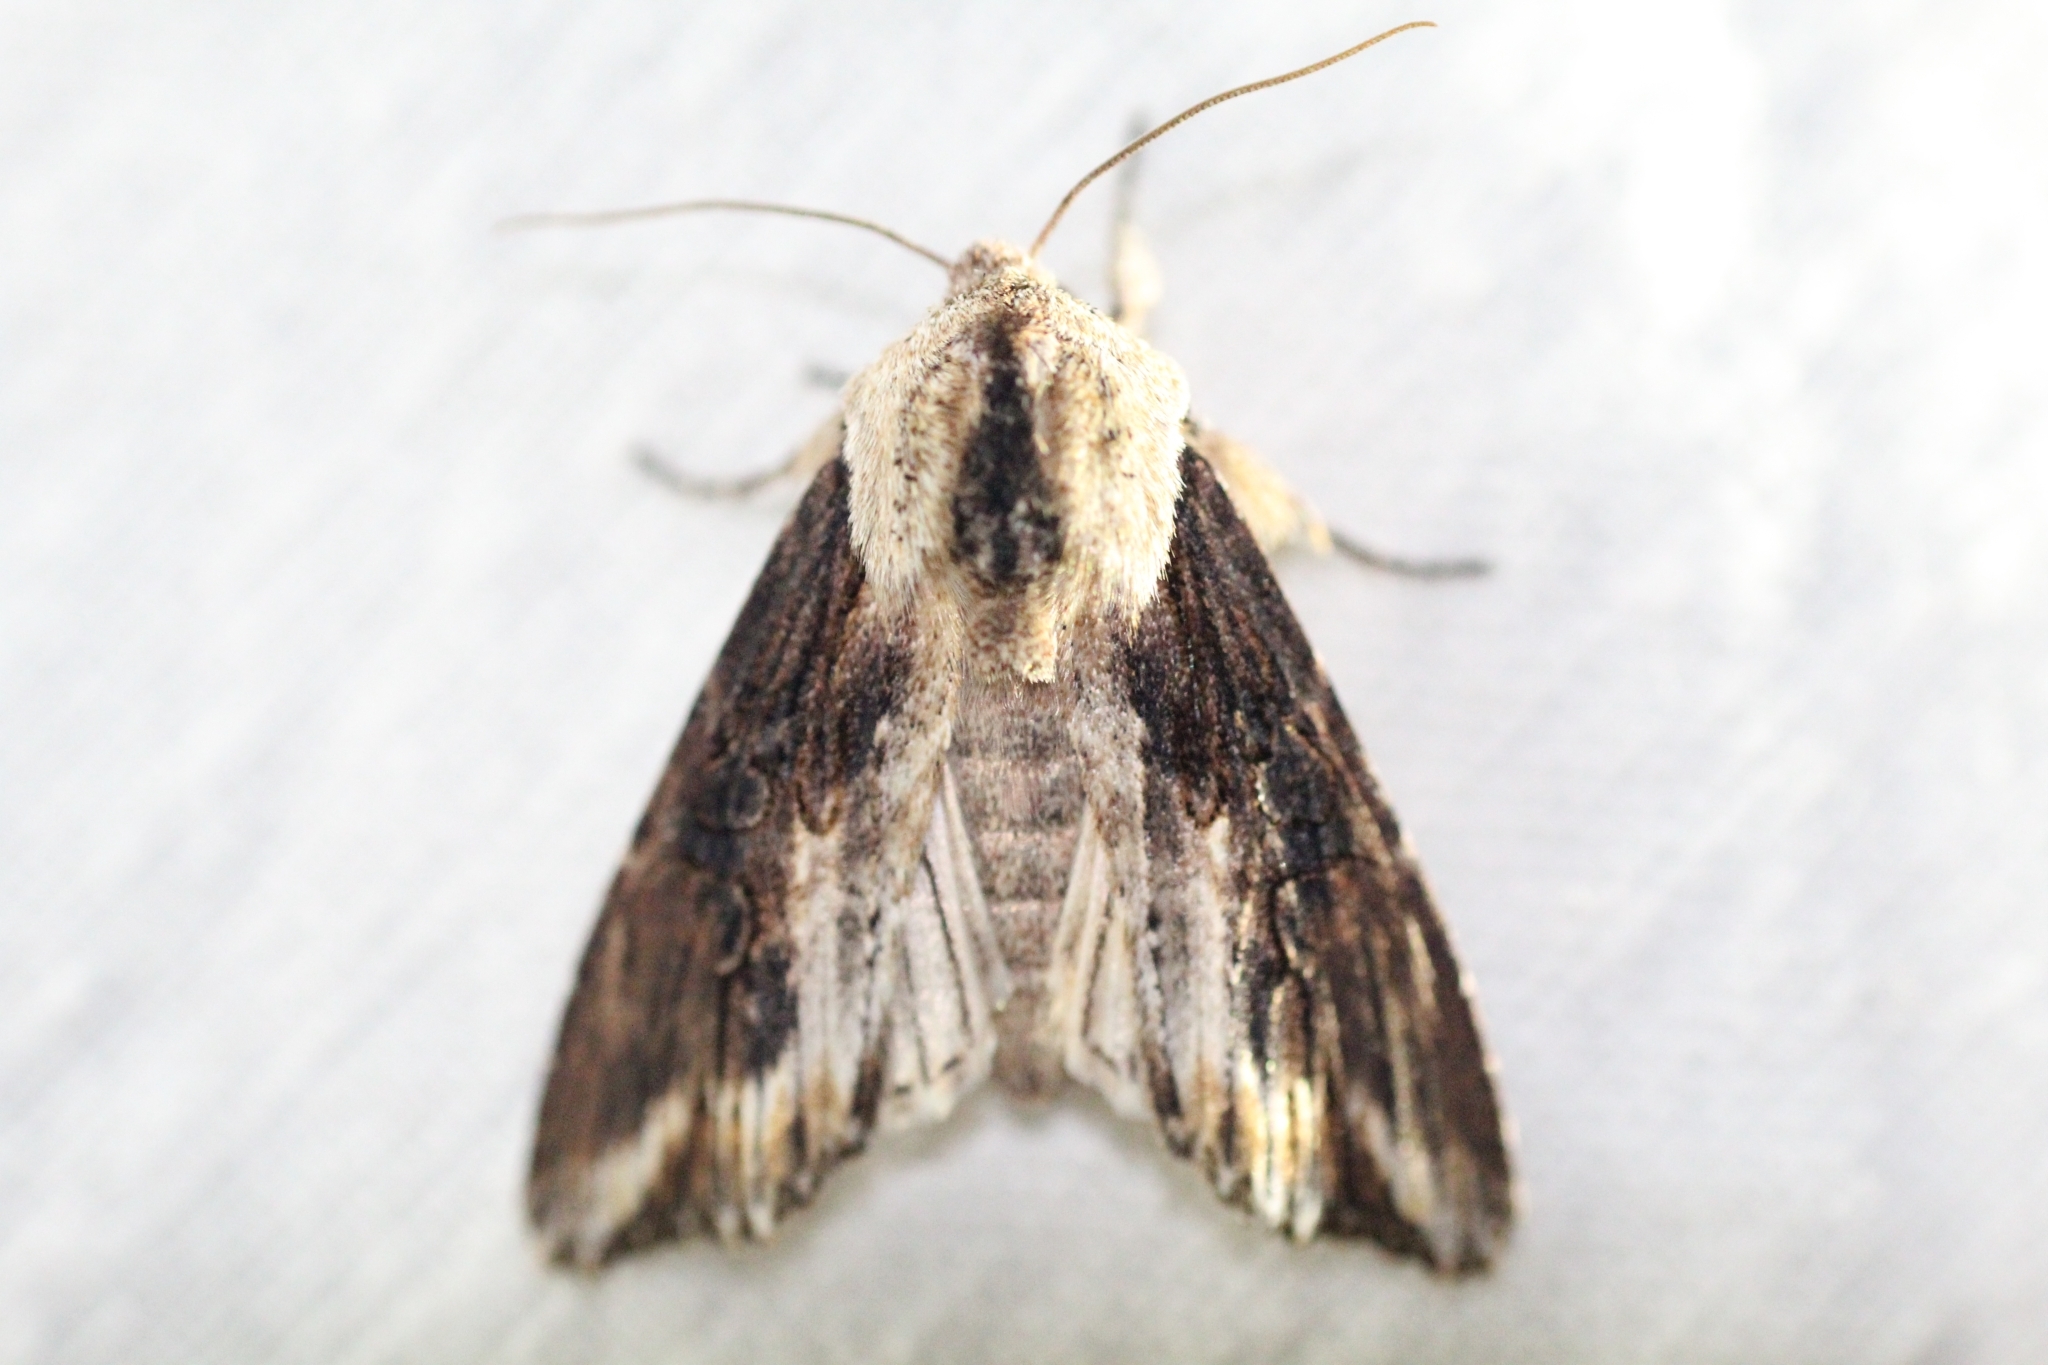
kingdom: Animalia
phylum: Arthropoda
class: Insecta
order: Lepidoptera
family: Noctuidae
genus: Egira
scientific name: Egira conspicillaris
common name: Silver cloud
